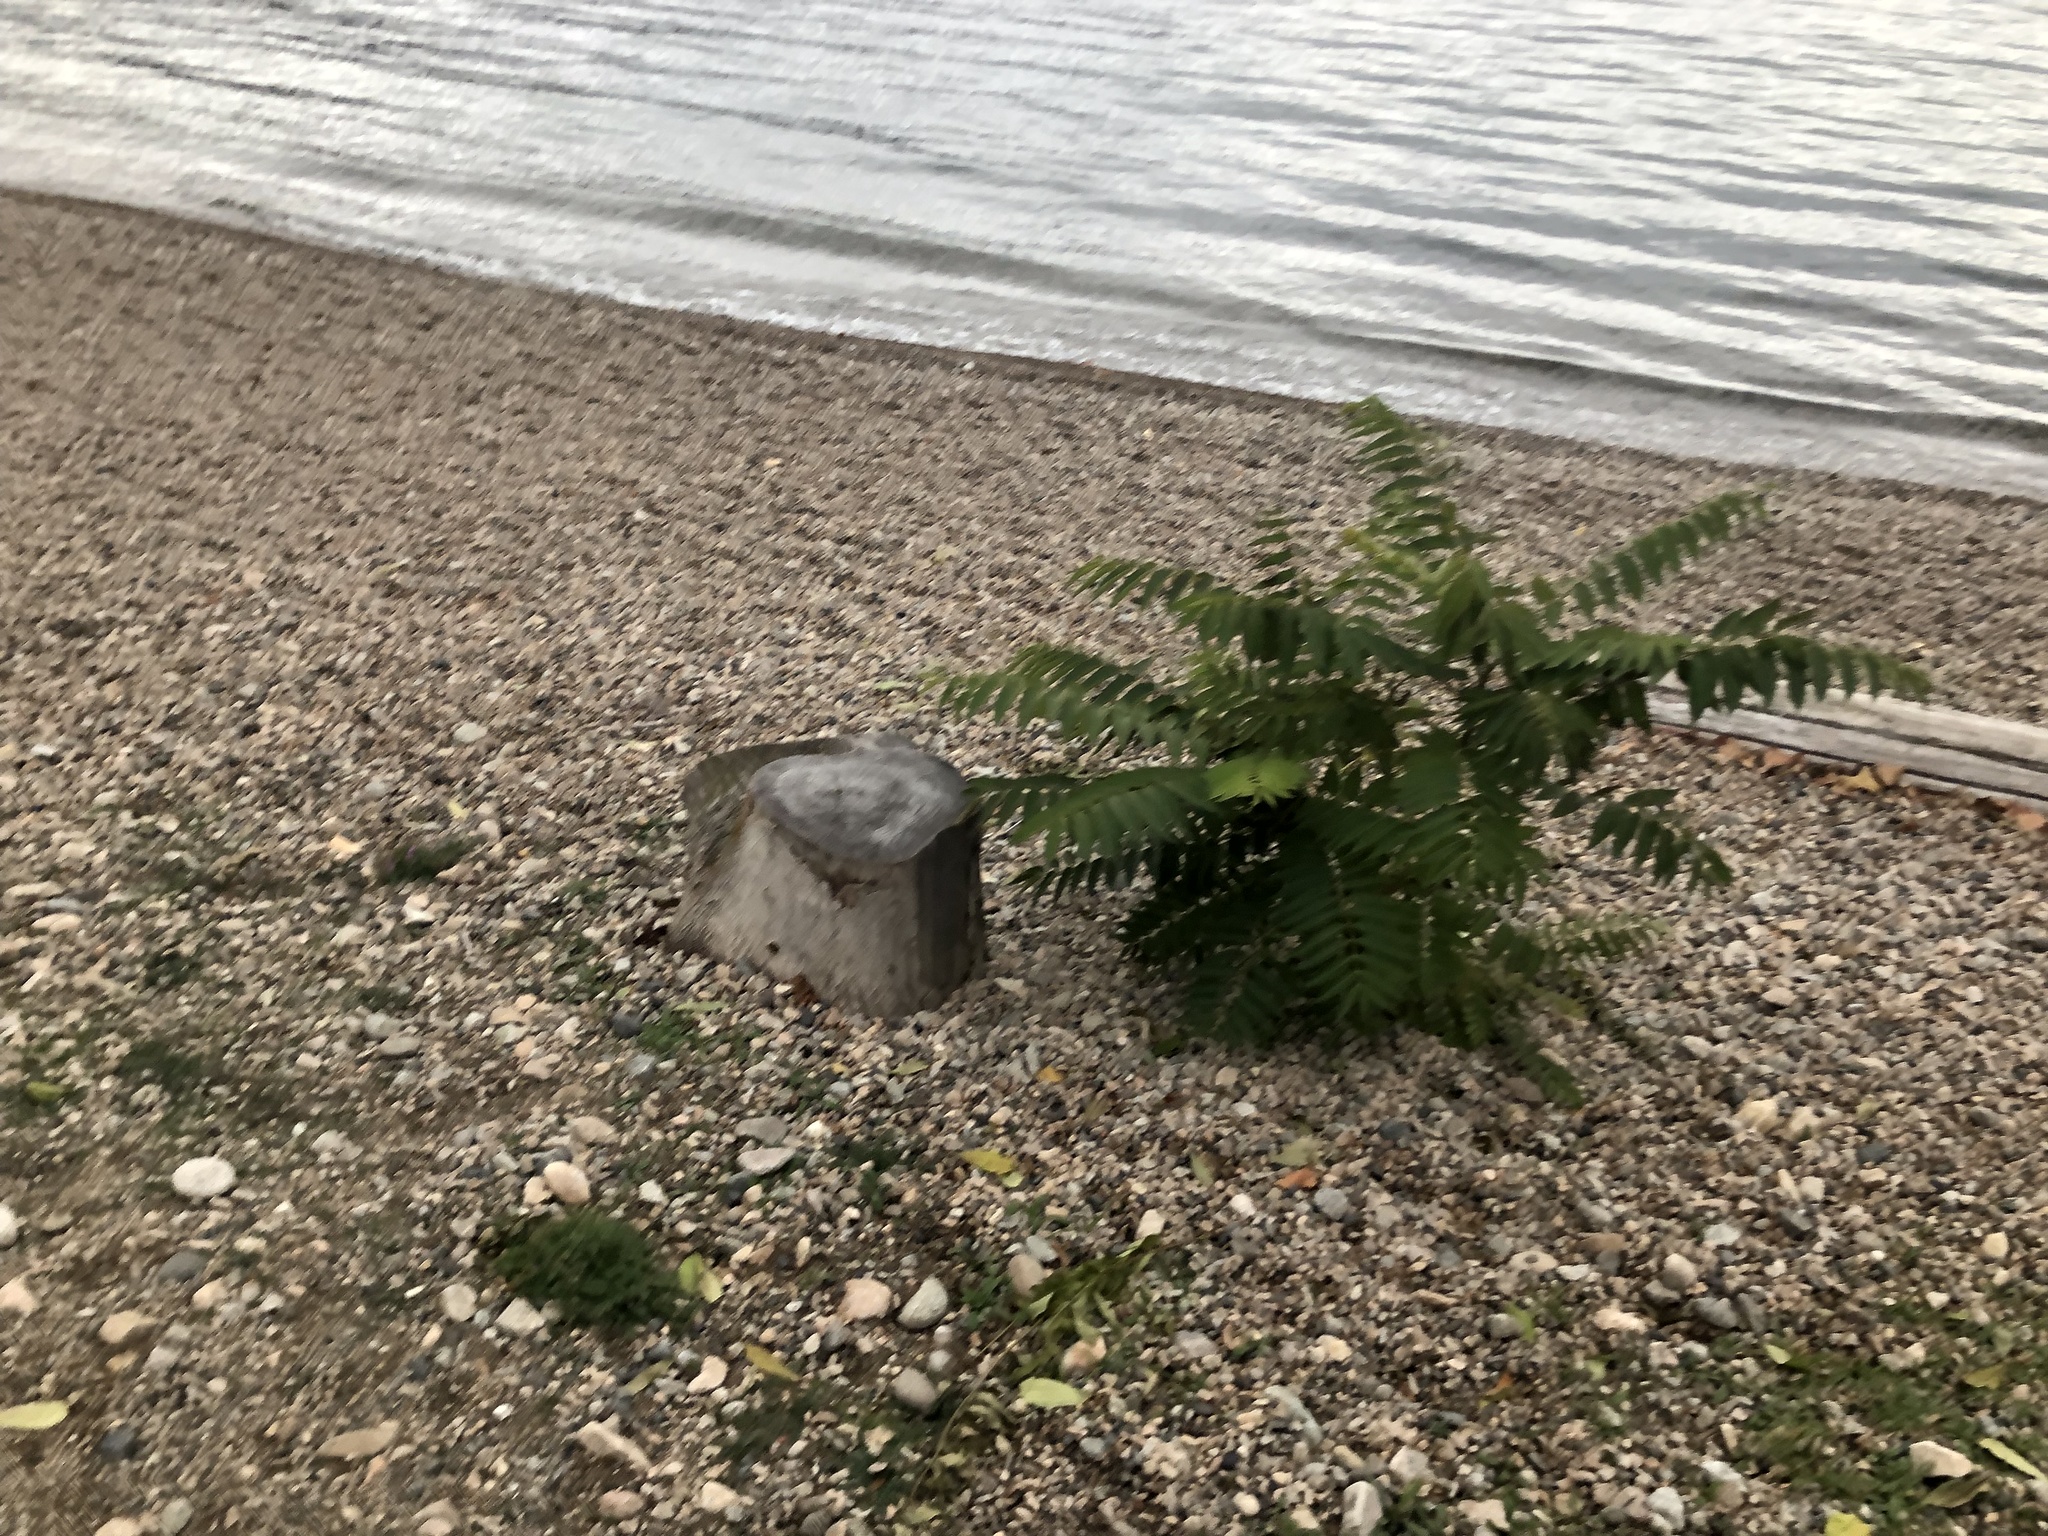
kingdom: Plantae
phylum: Tracheophyta
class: Magnoliopsida
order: Sapindales
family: Simaroubaceae
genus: Ailanthus
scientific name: Ailanthus altissima
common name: Tree-of-heaven
